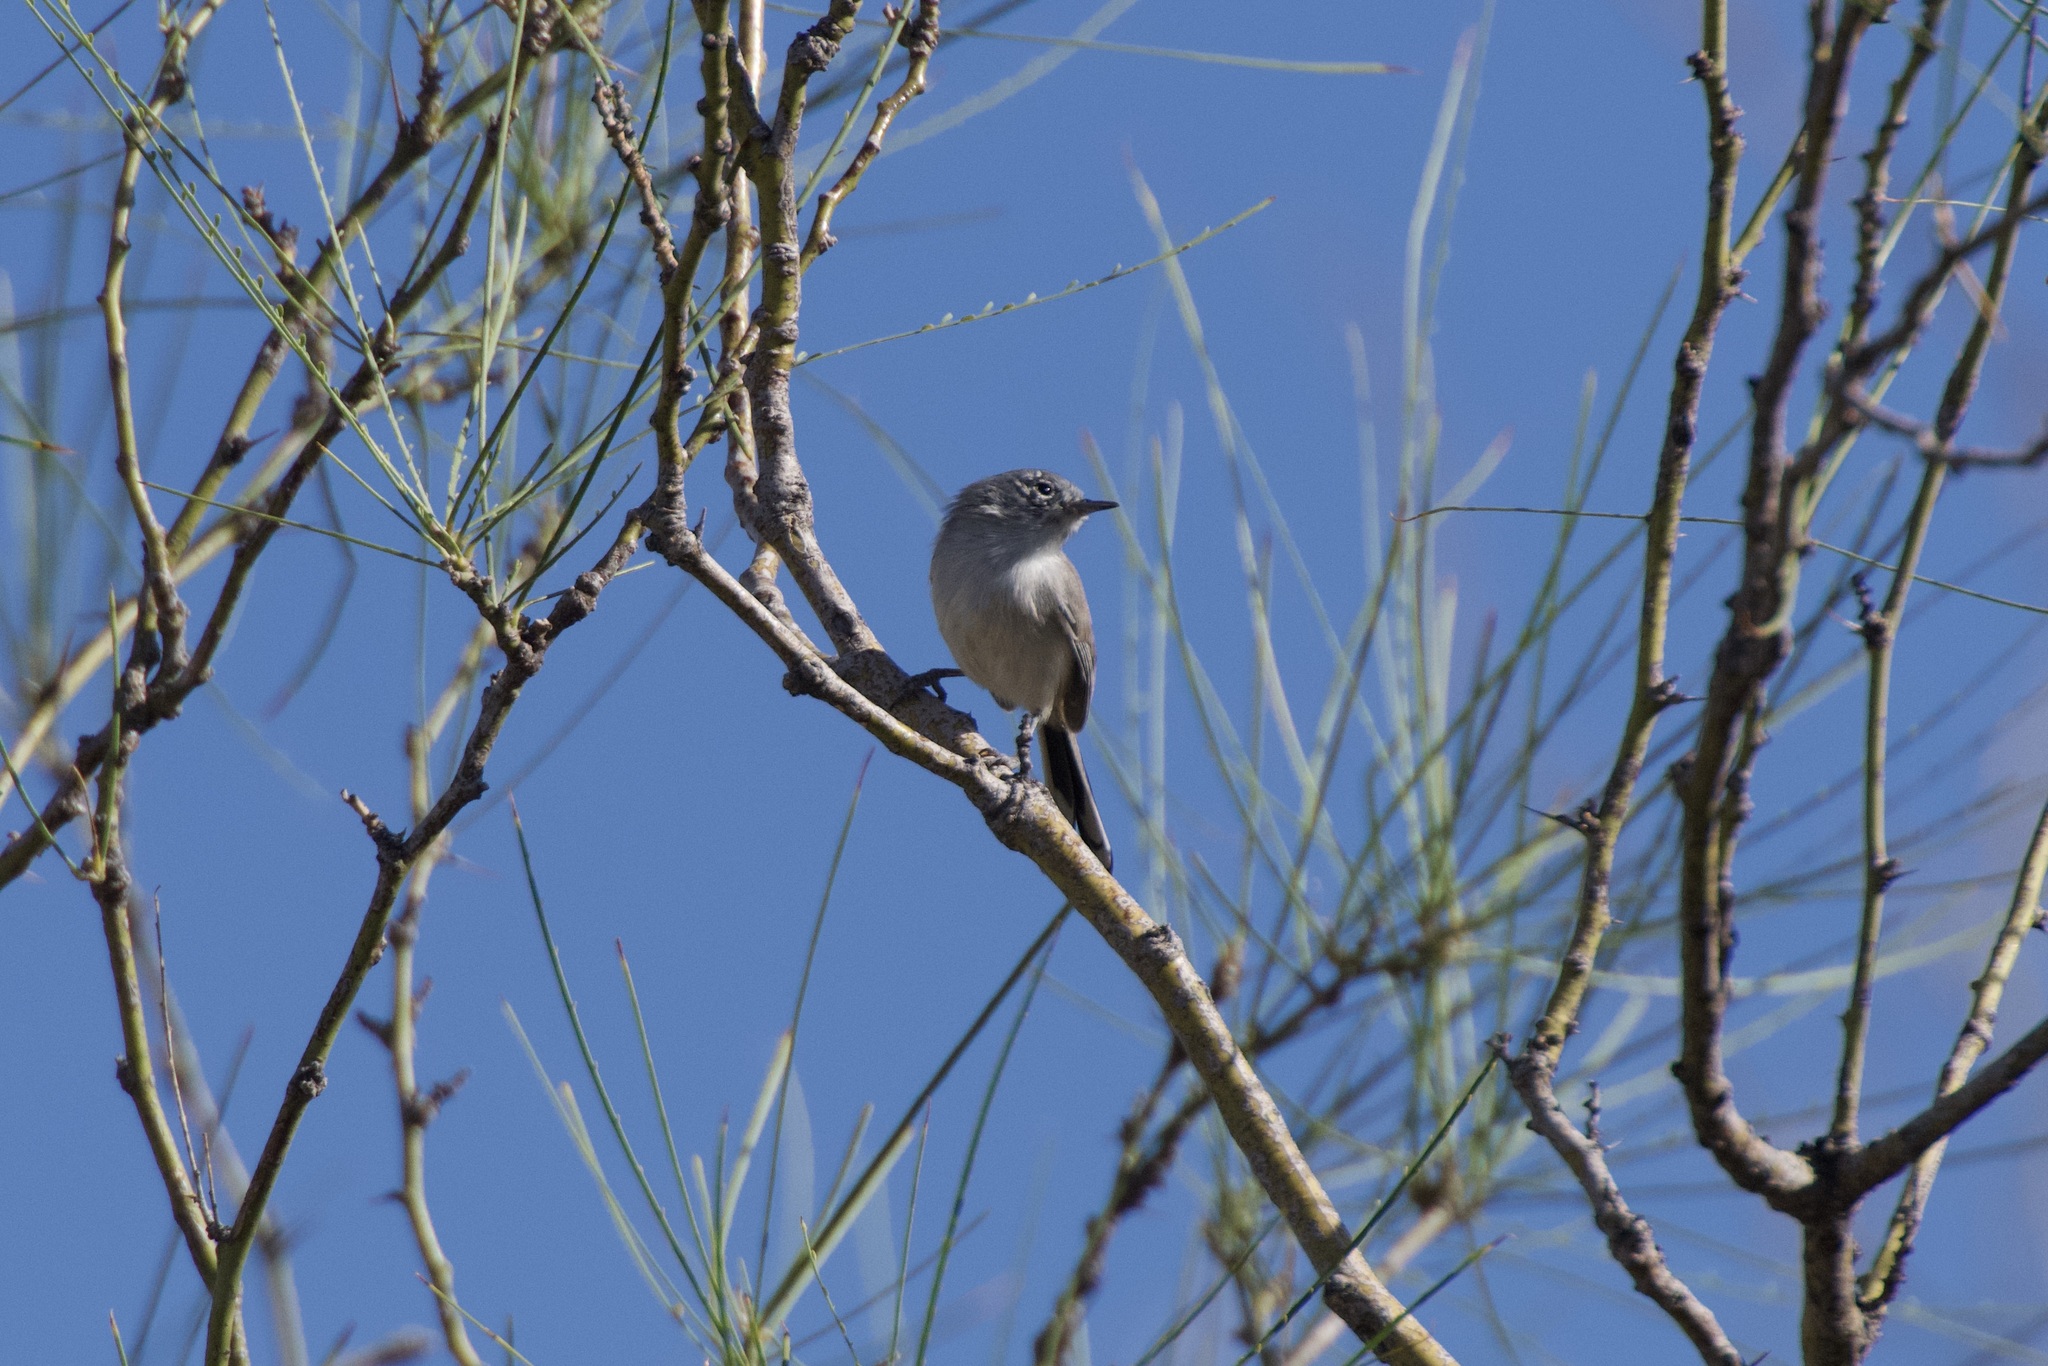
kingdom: Animalia
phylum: Chordata
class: Aves
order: Passeriformes
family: Polioptilidae
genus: Polioptila
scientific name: Polioptila melanura
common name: Black-tailed gnatcatcher
